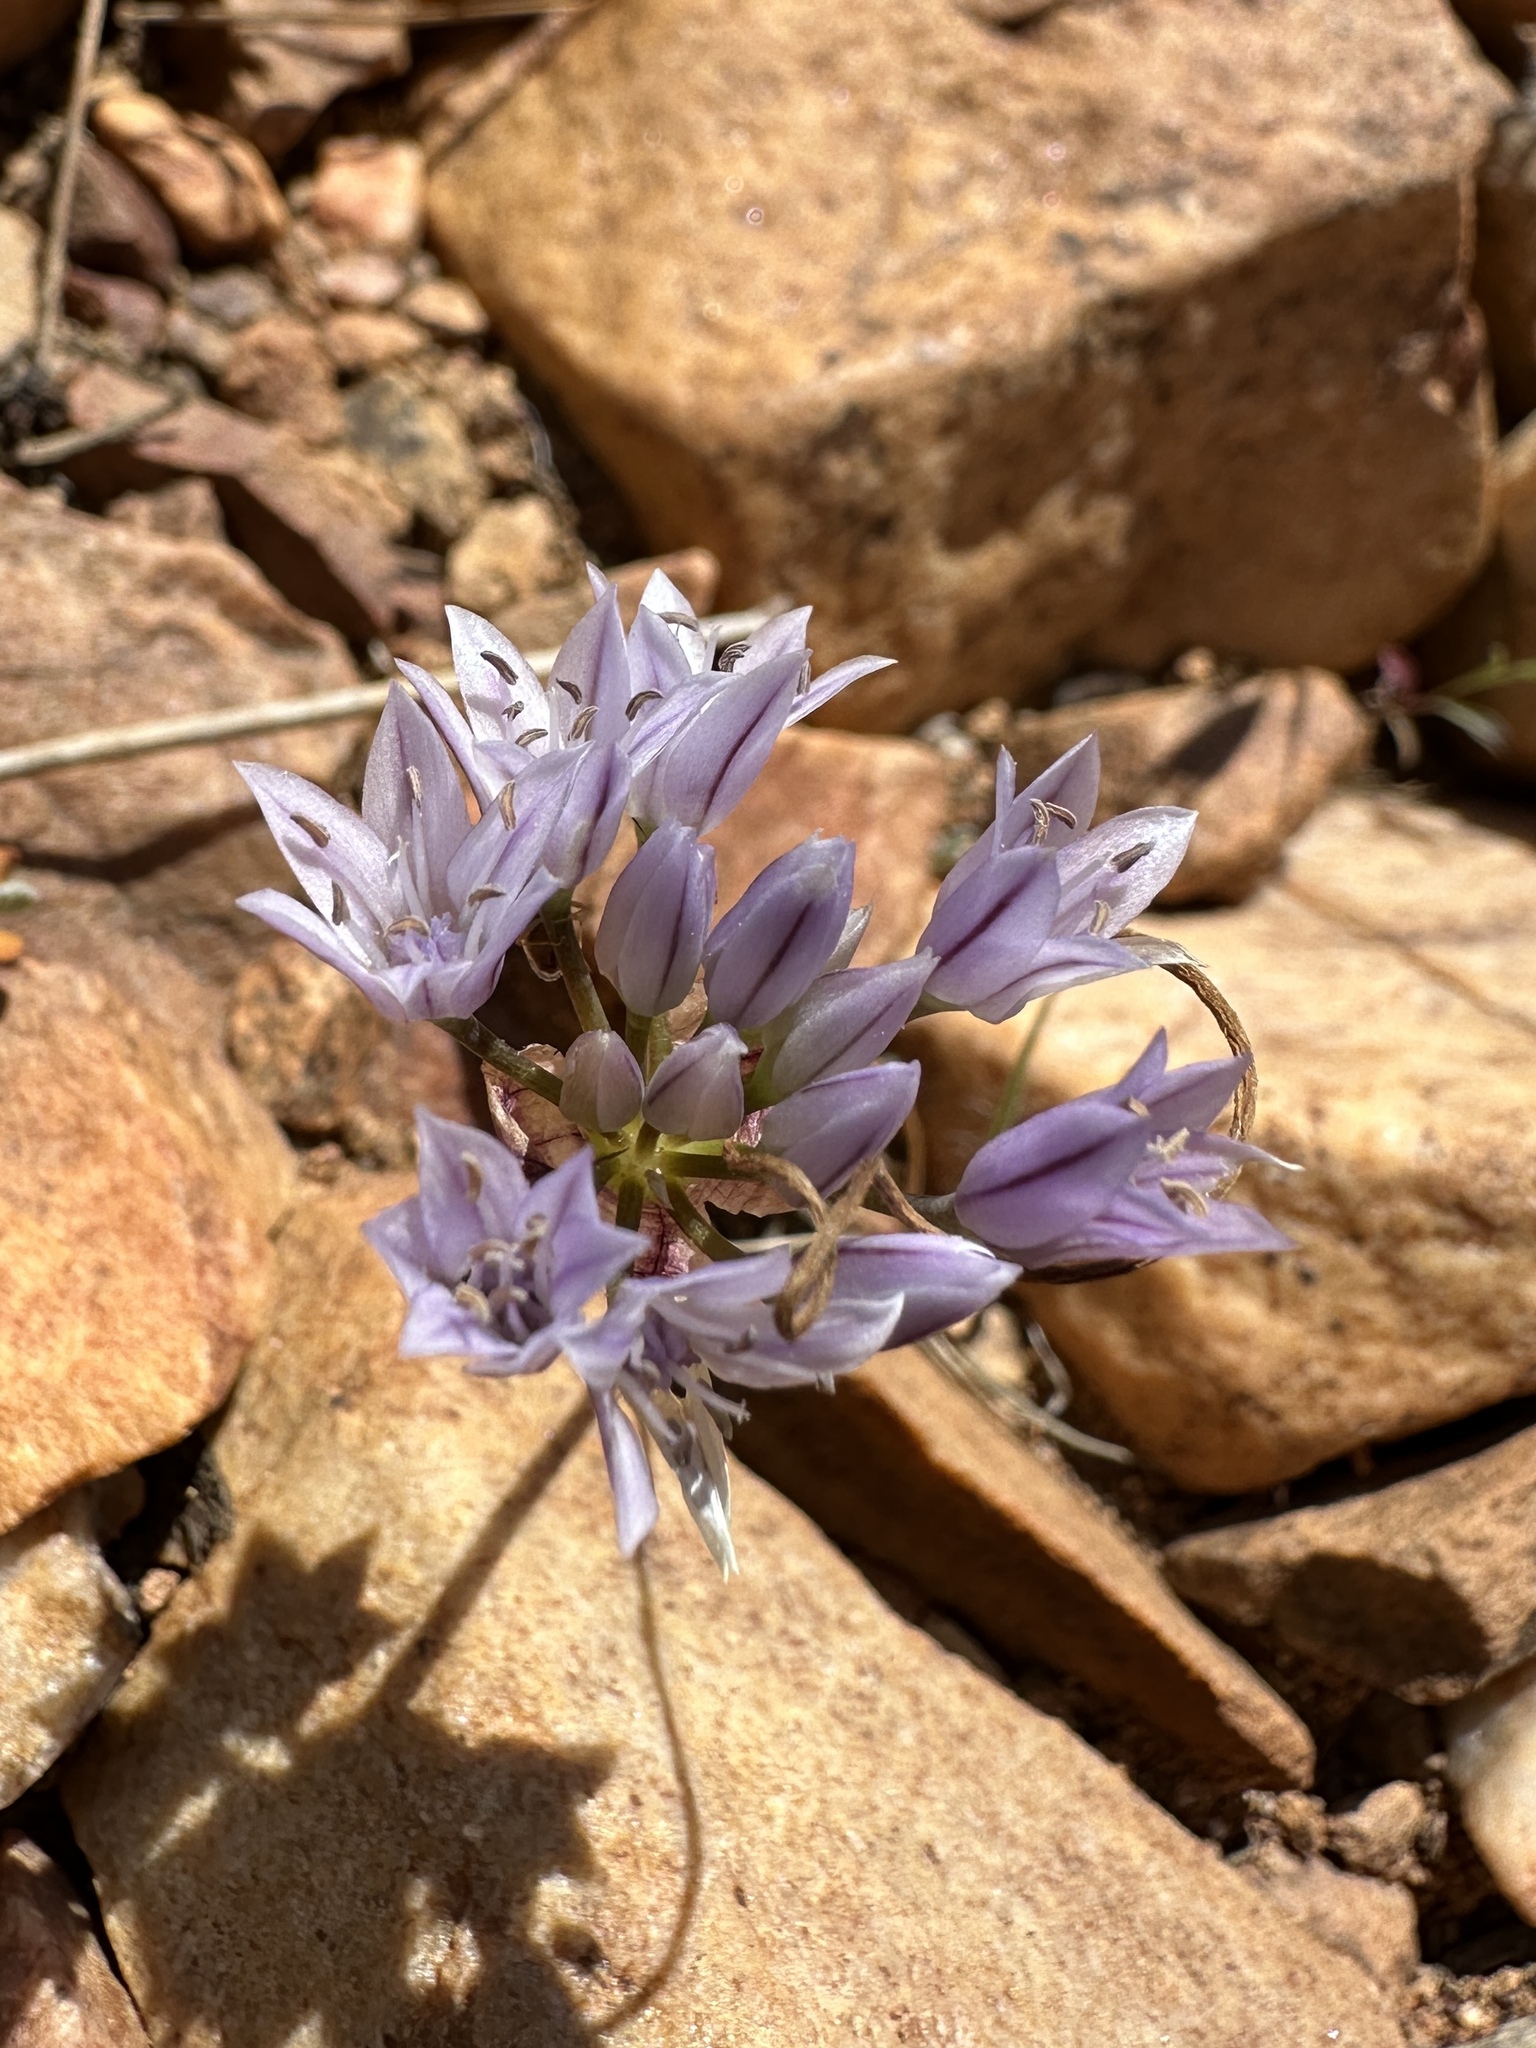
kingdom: Plantae
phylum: Tracheophyta
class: Liliopsida
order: Asparagales
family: Amaryllidaceae
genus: Allium
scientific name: Allium parryi
